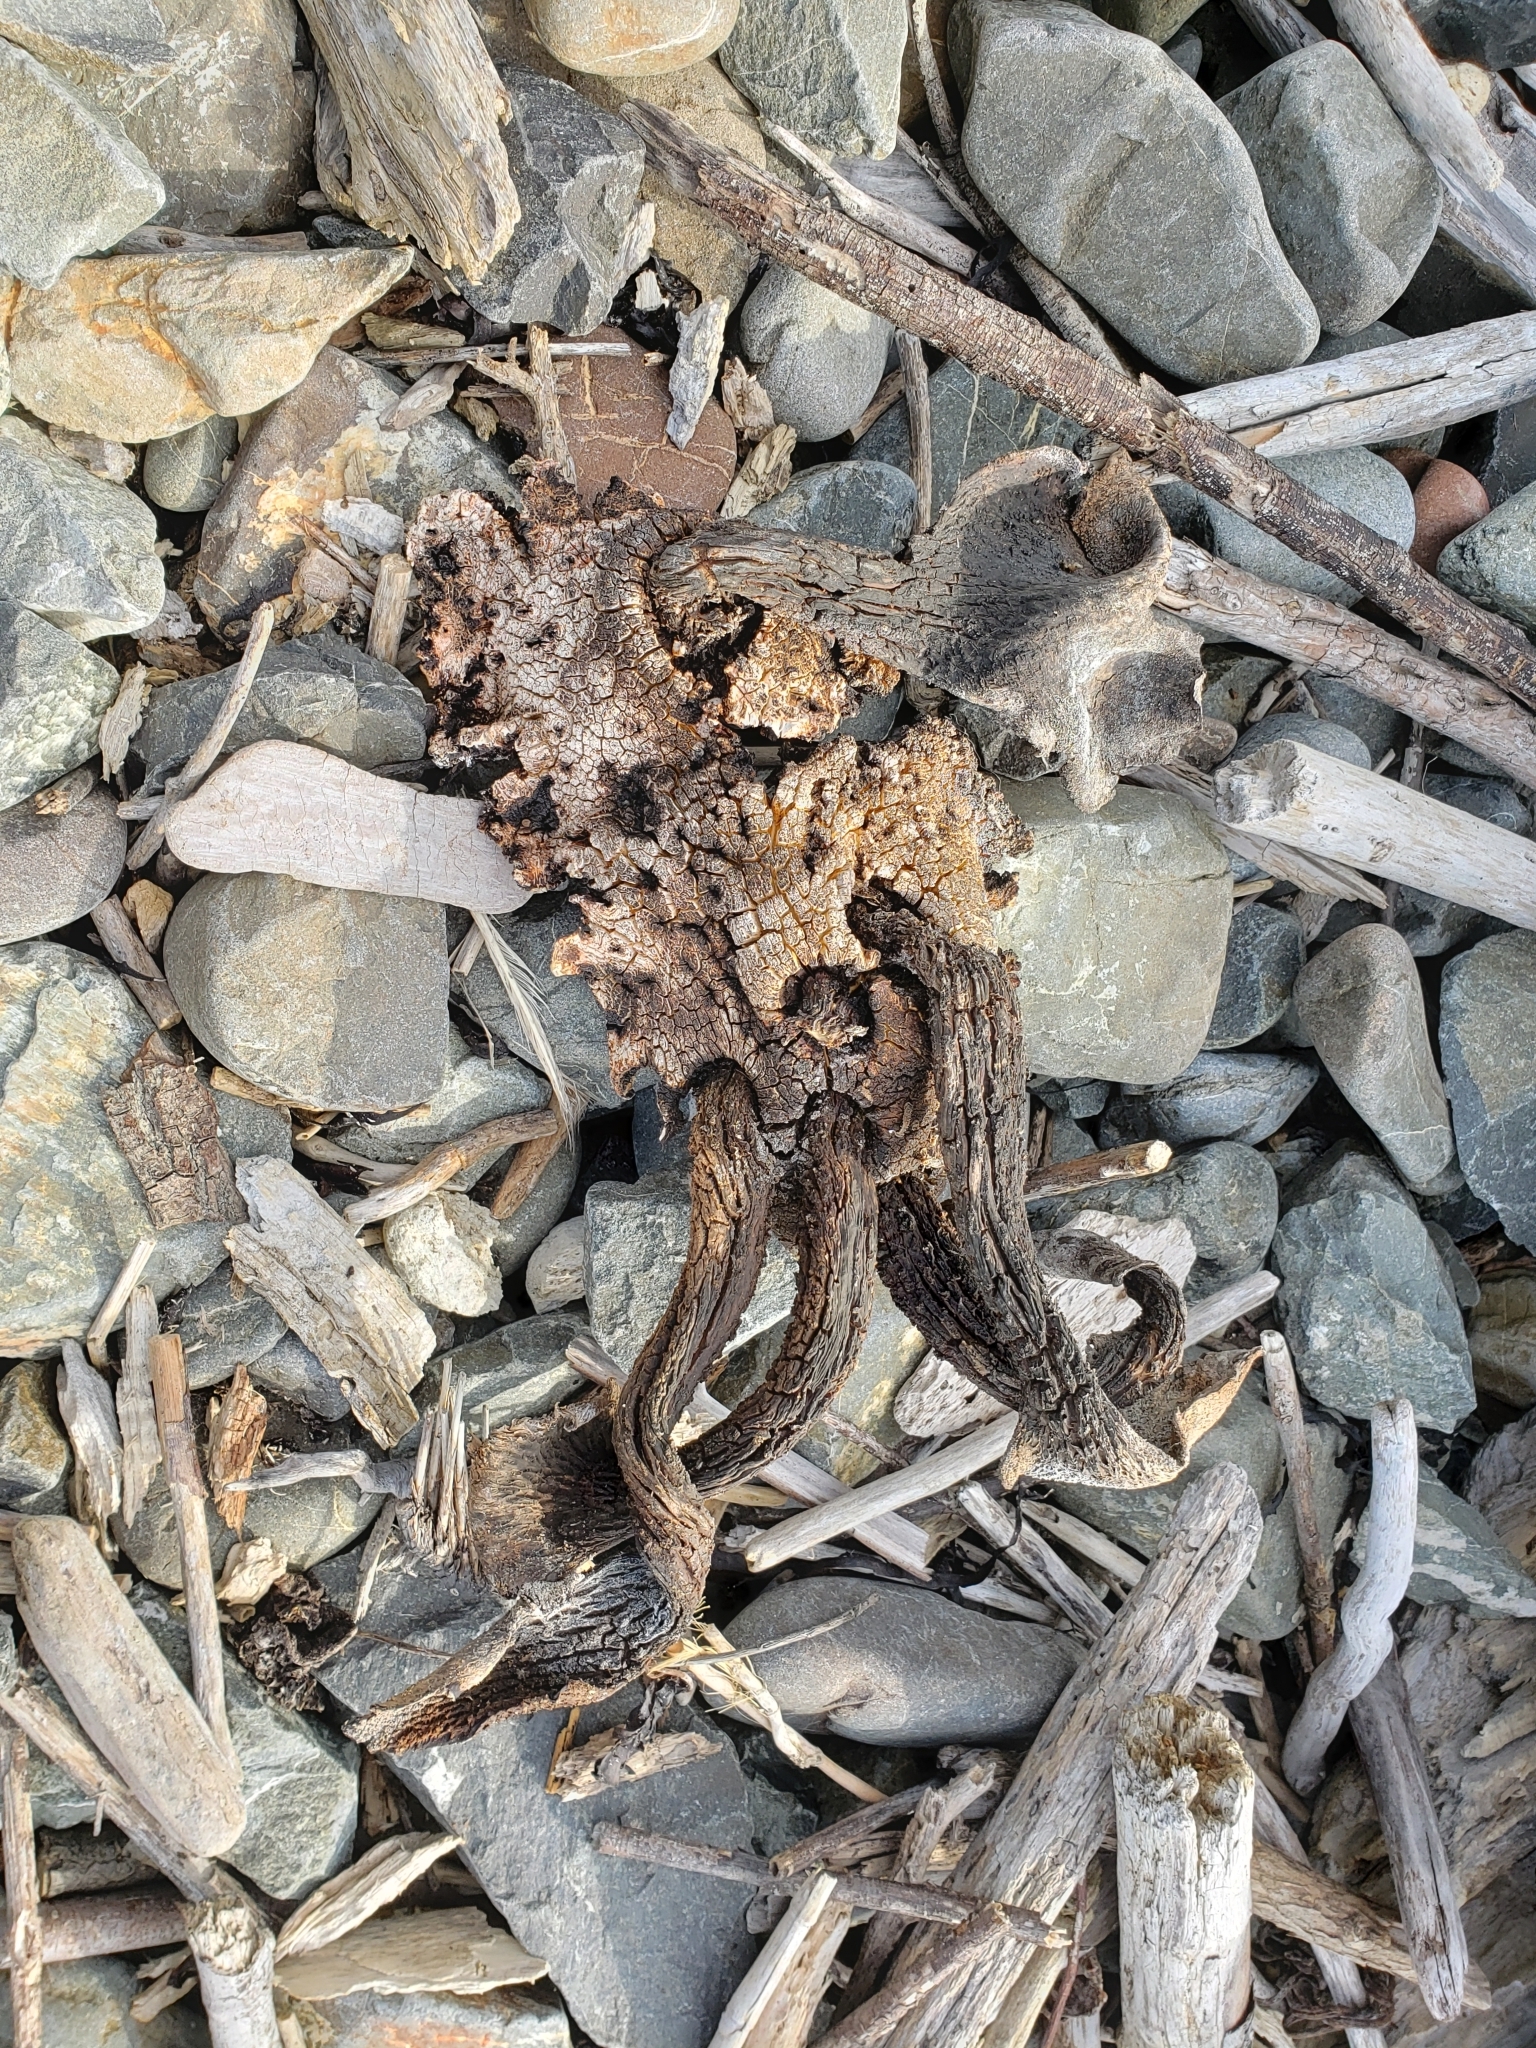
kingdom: Chromista
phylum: Ochrophyta
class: Phaeophyceae
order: Fucales
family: Durvillaeaceae
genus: Durvillaea
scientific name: Durvillaea antarctica
